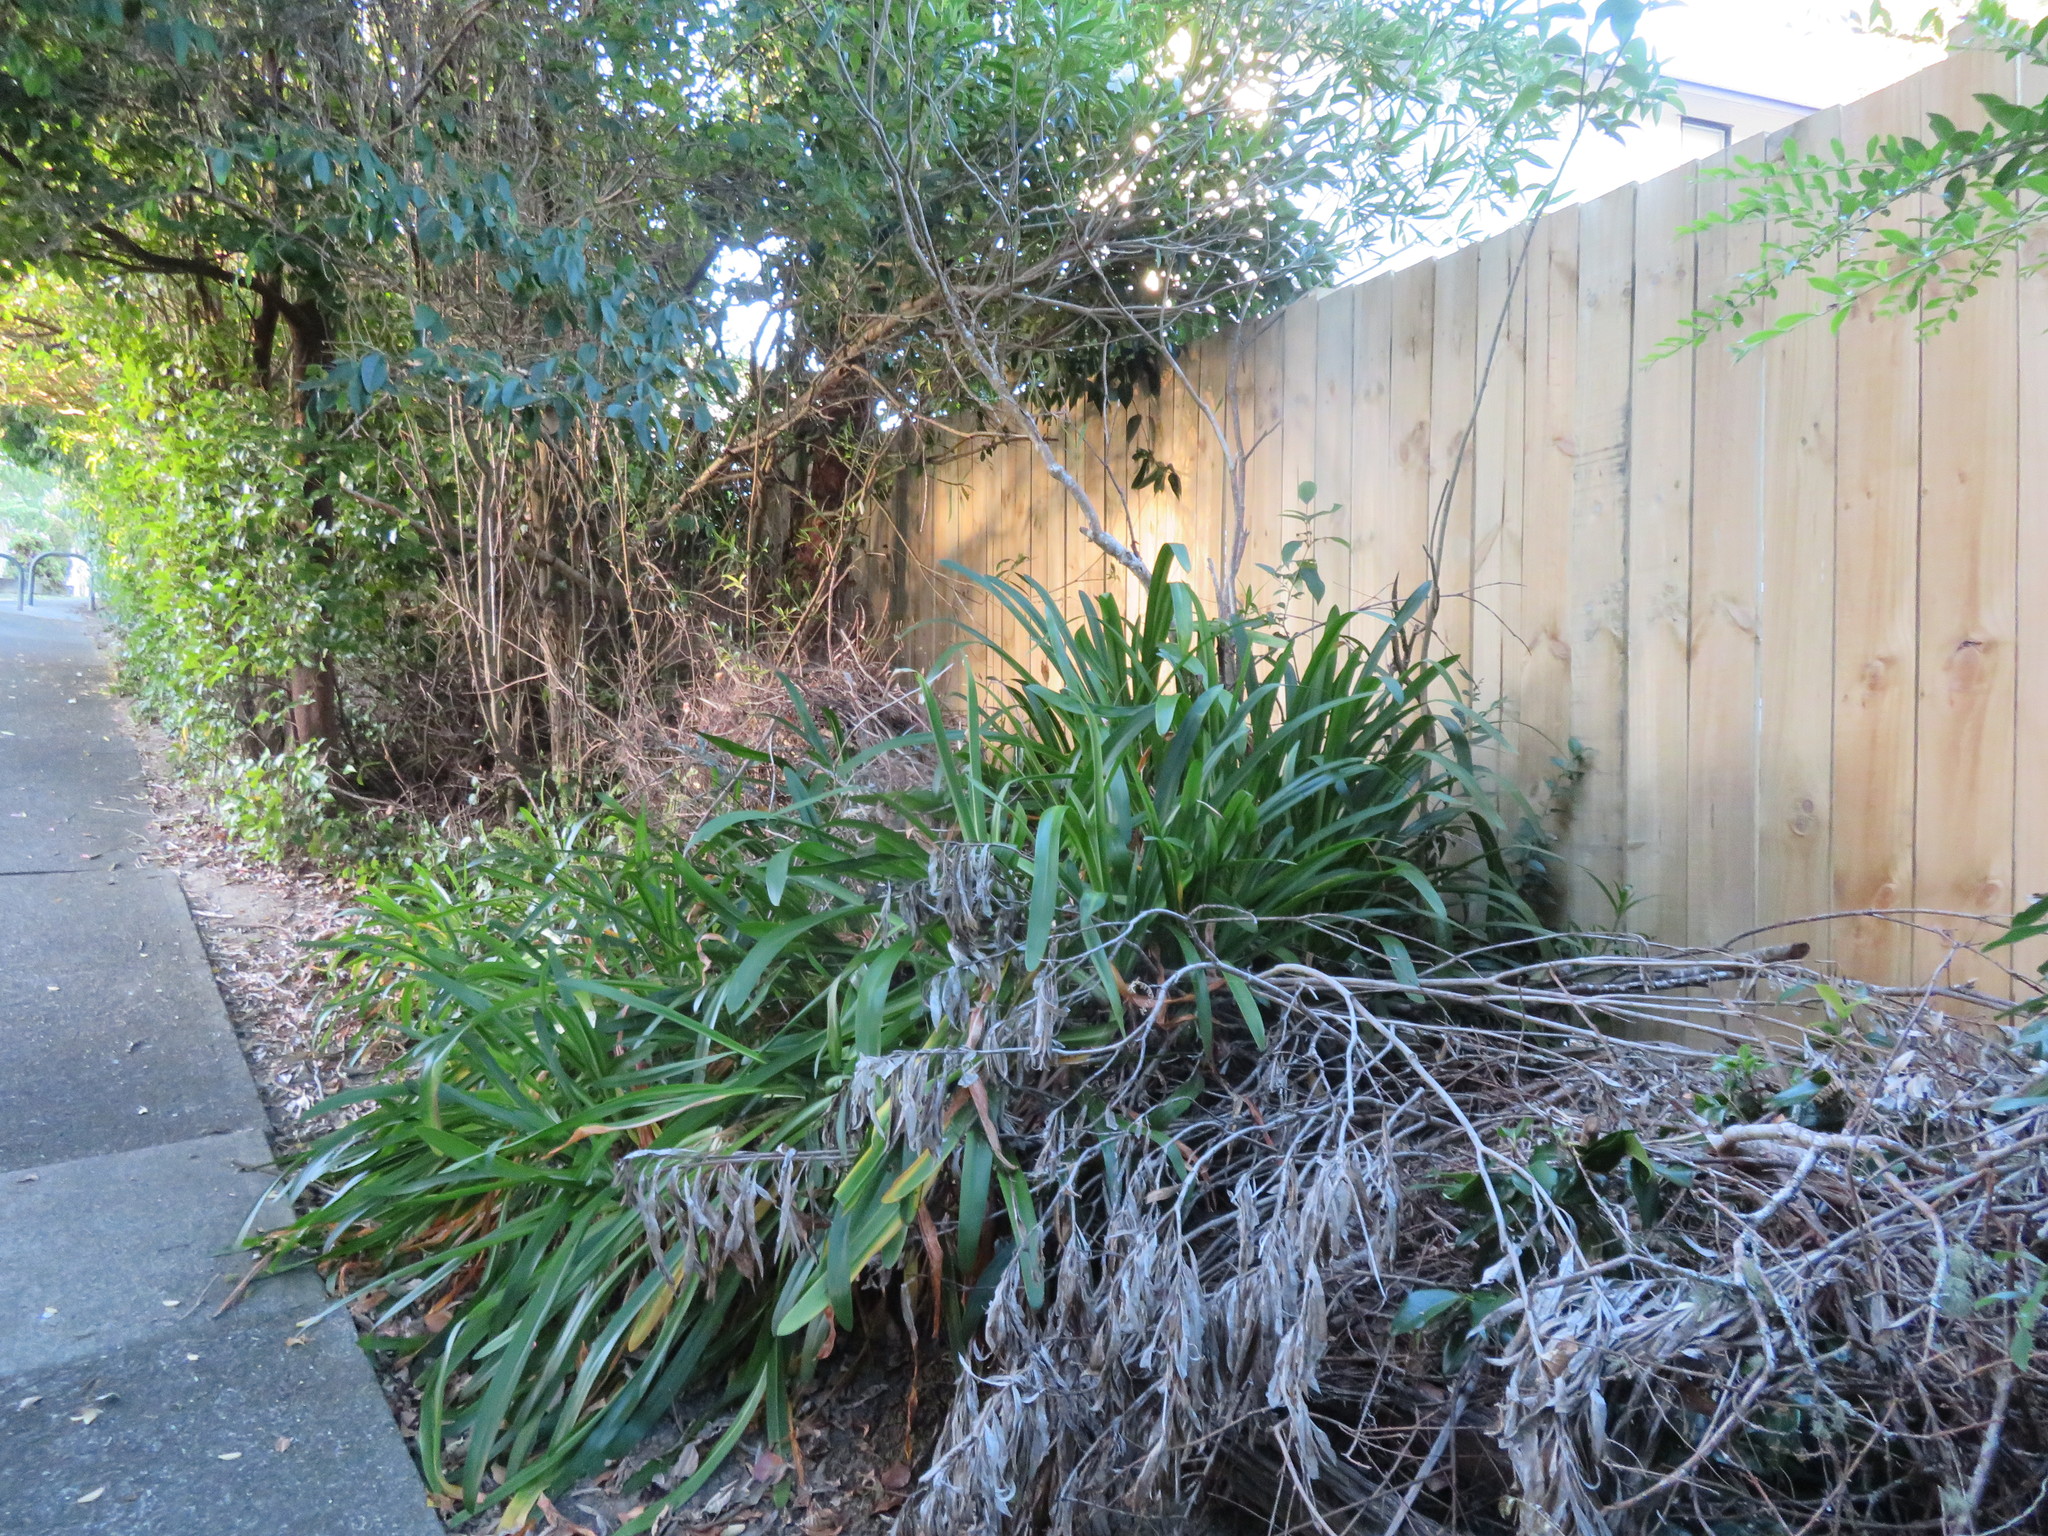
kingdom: Plantae
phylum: Tracheophyta
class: Liliopsida
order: Asparagales
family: Amaryllidaceae
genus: Agapanthus
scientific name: Agapanthus praecox
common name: African-lily
